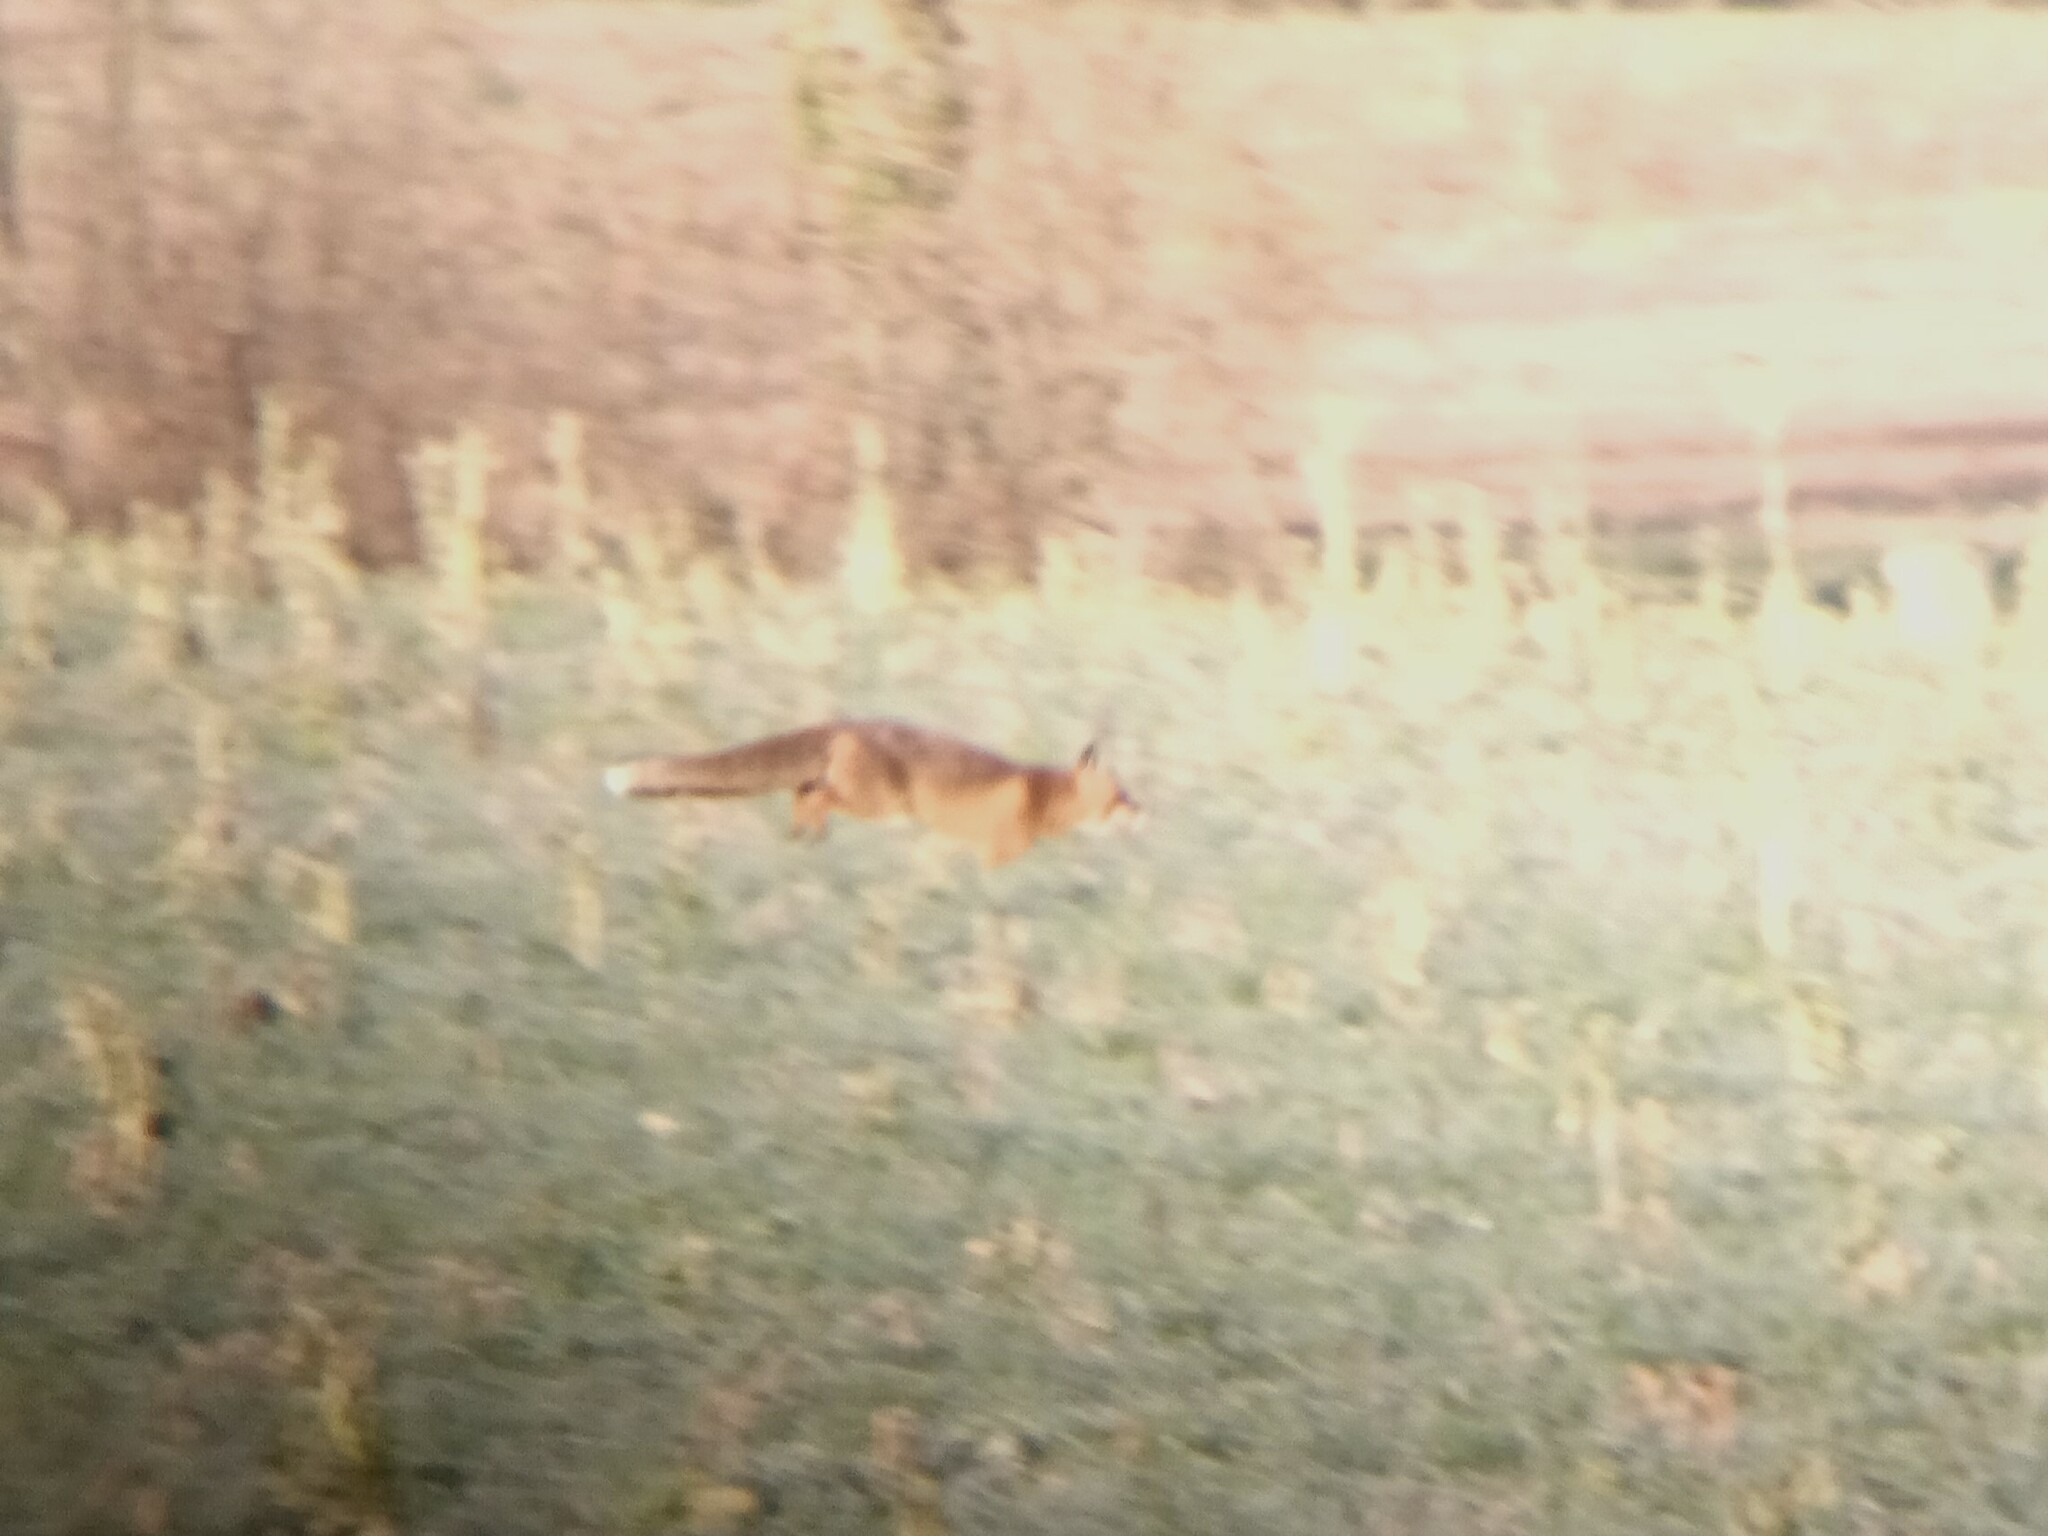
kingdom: Animalia
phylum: Chordata
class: Mammalia
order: Carnivora
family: Canidae
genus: Vulpes
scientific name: Vulpes vulpes
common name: Red fox
